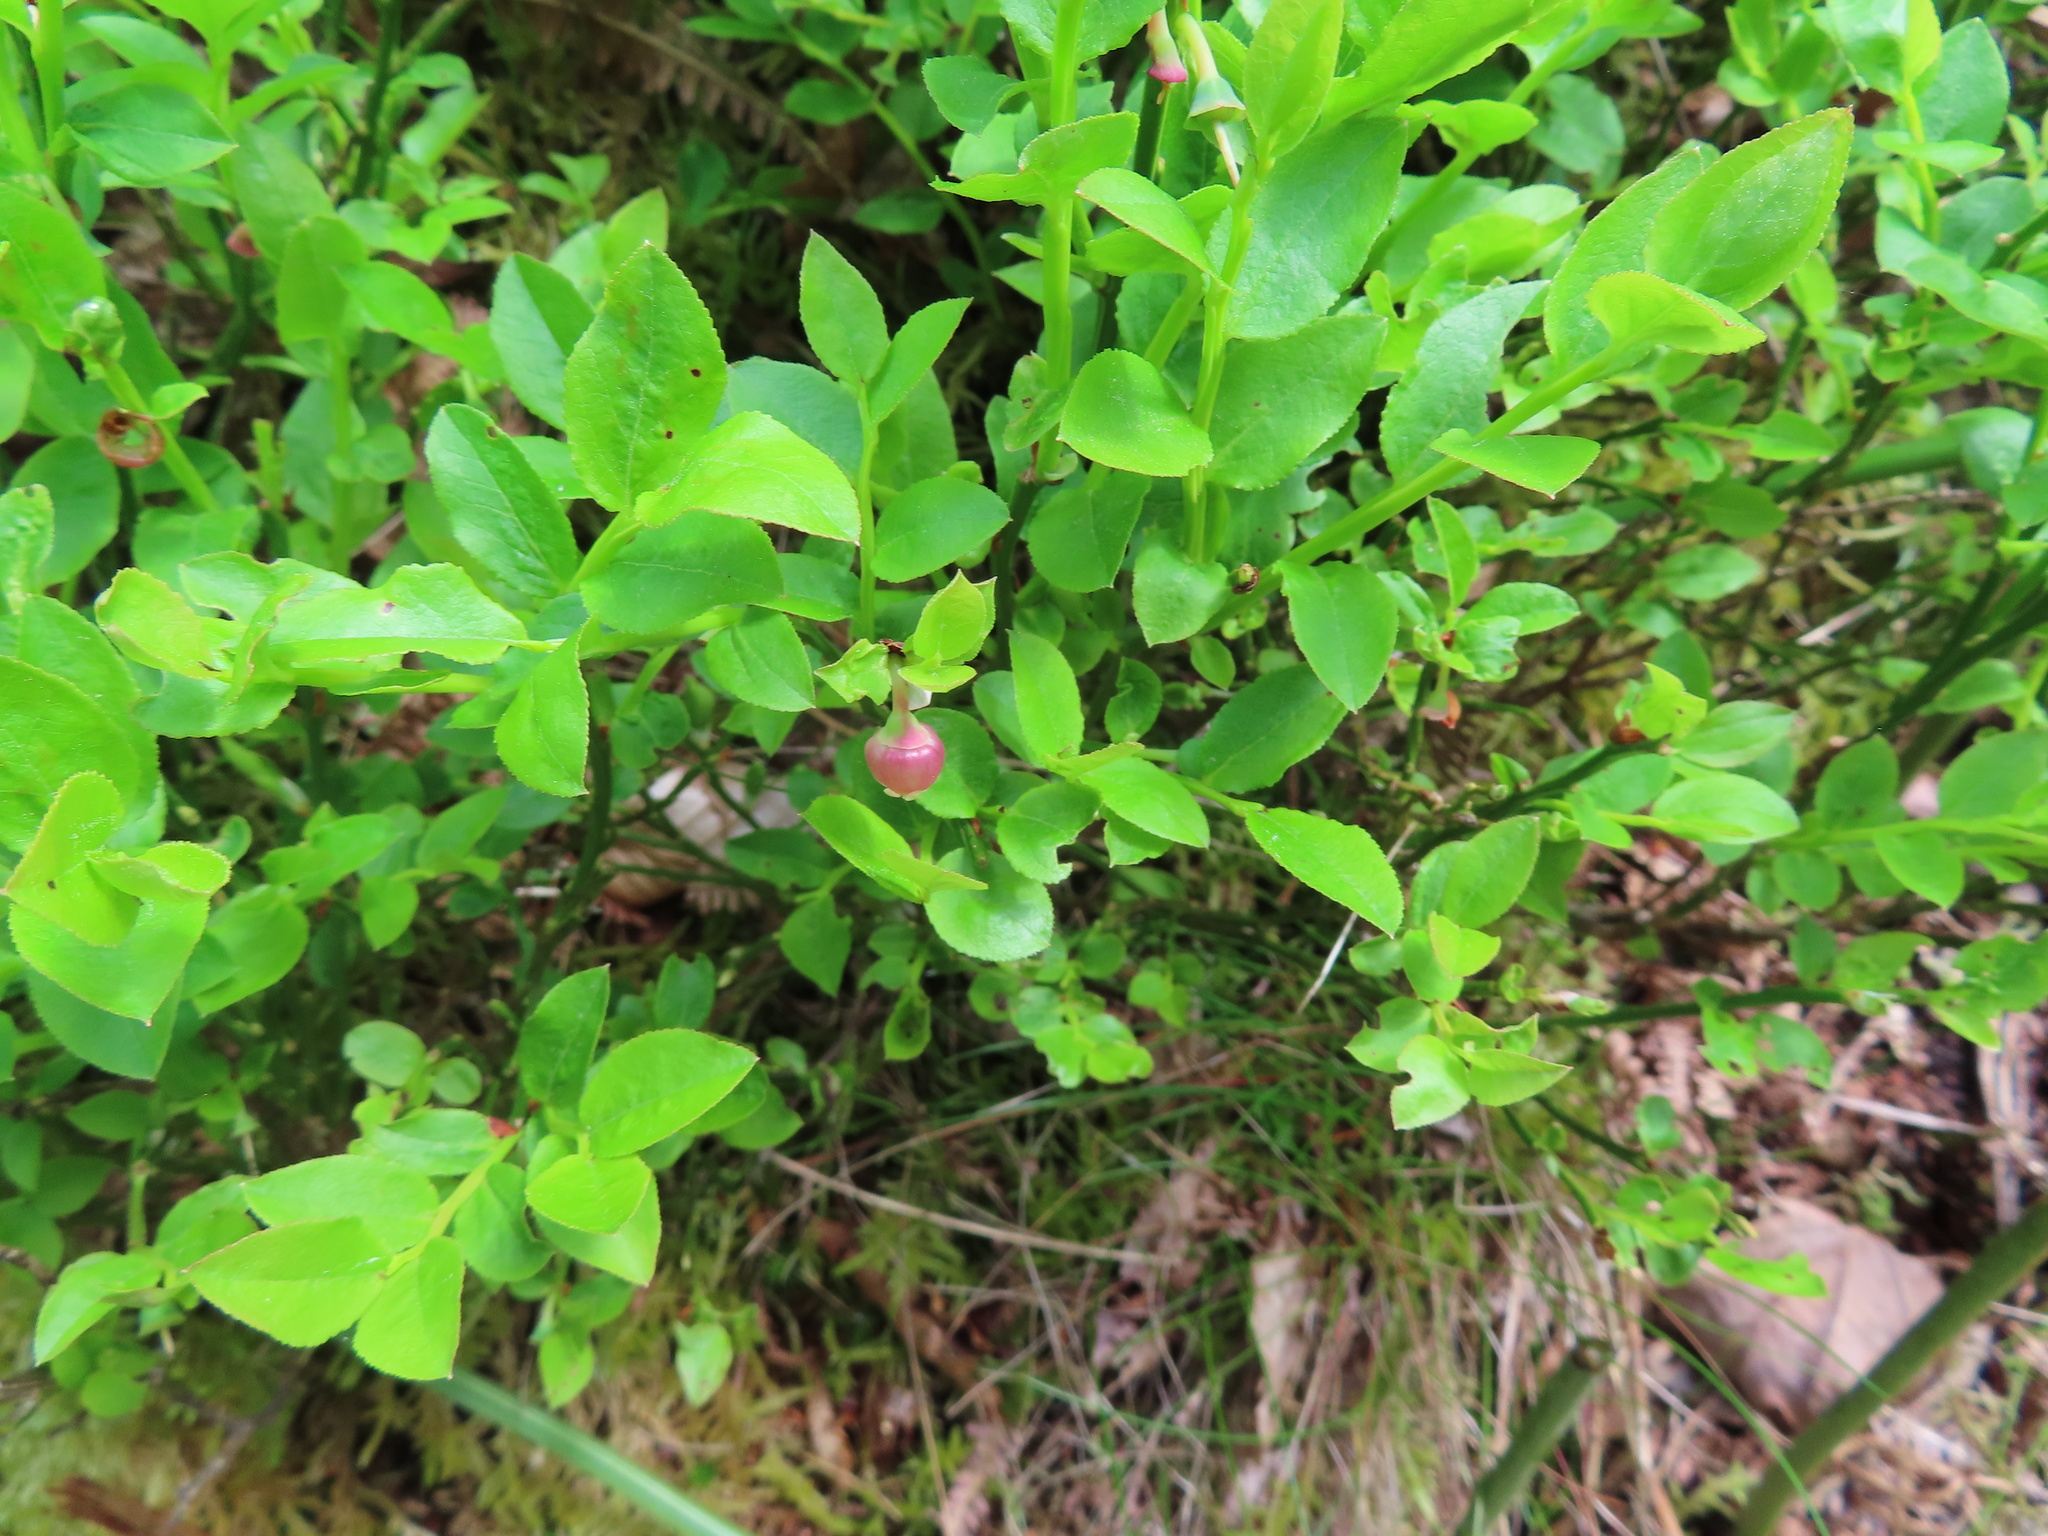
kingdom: Plantae
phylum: Tracheophyta
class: Magnoliopsida
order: Ericales
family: Ericaceae
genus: Vaccinium
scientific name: Vaccinium myrtillus
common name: Bilberry
